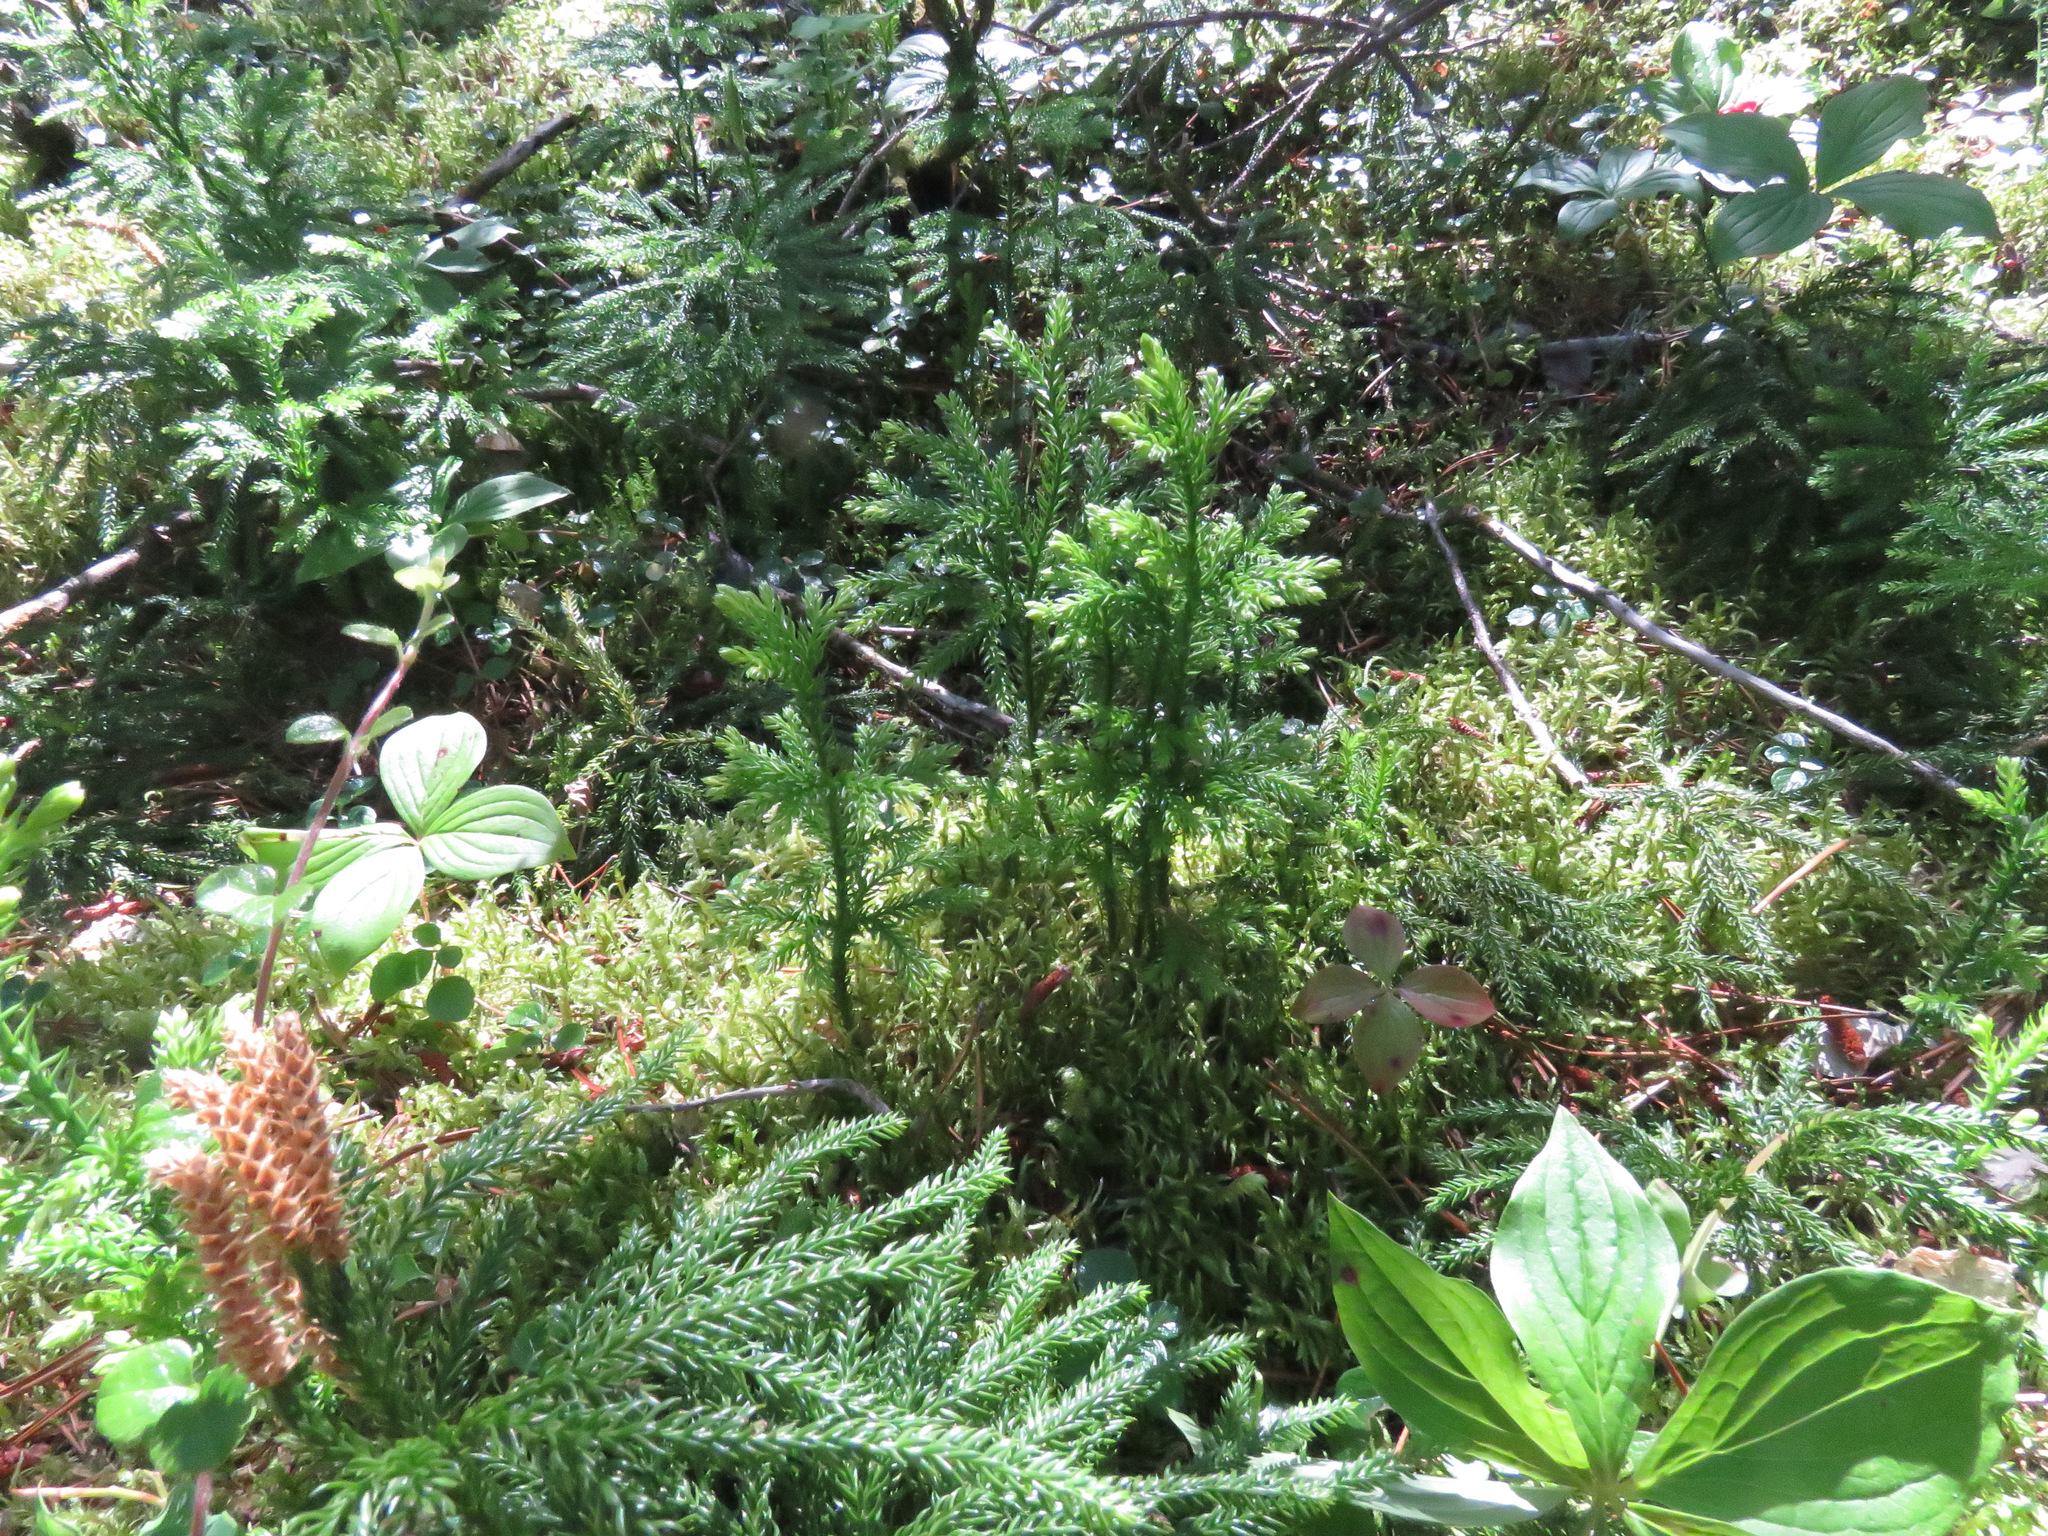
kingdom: Plantae
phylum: Tracheophyta
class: Lycopodiopsida
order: Lycopodiales
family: Lycopodiaceae
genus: Dendrolycopodium
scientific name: Dendrolycopodium dendroideum
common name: Northern tree-clubmoss
